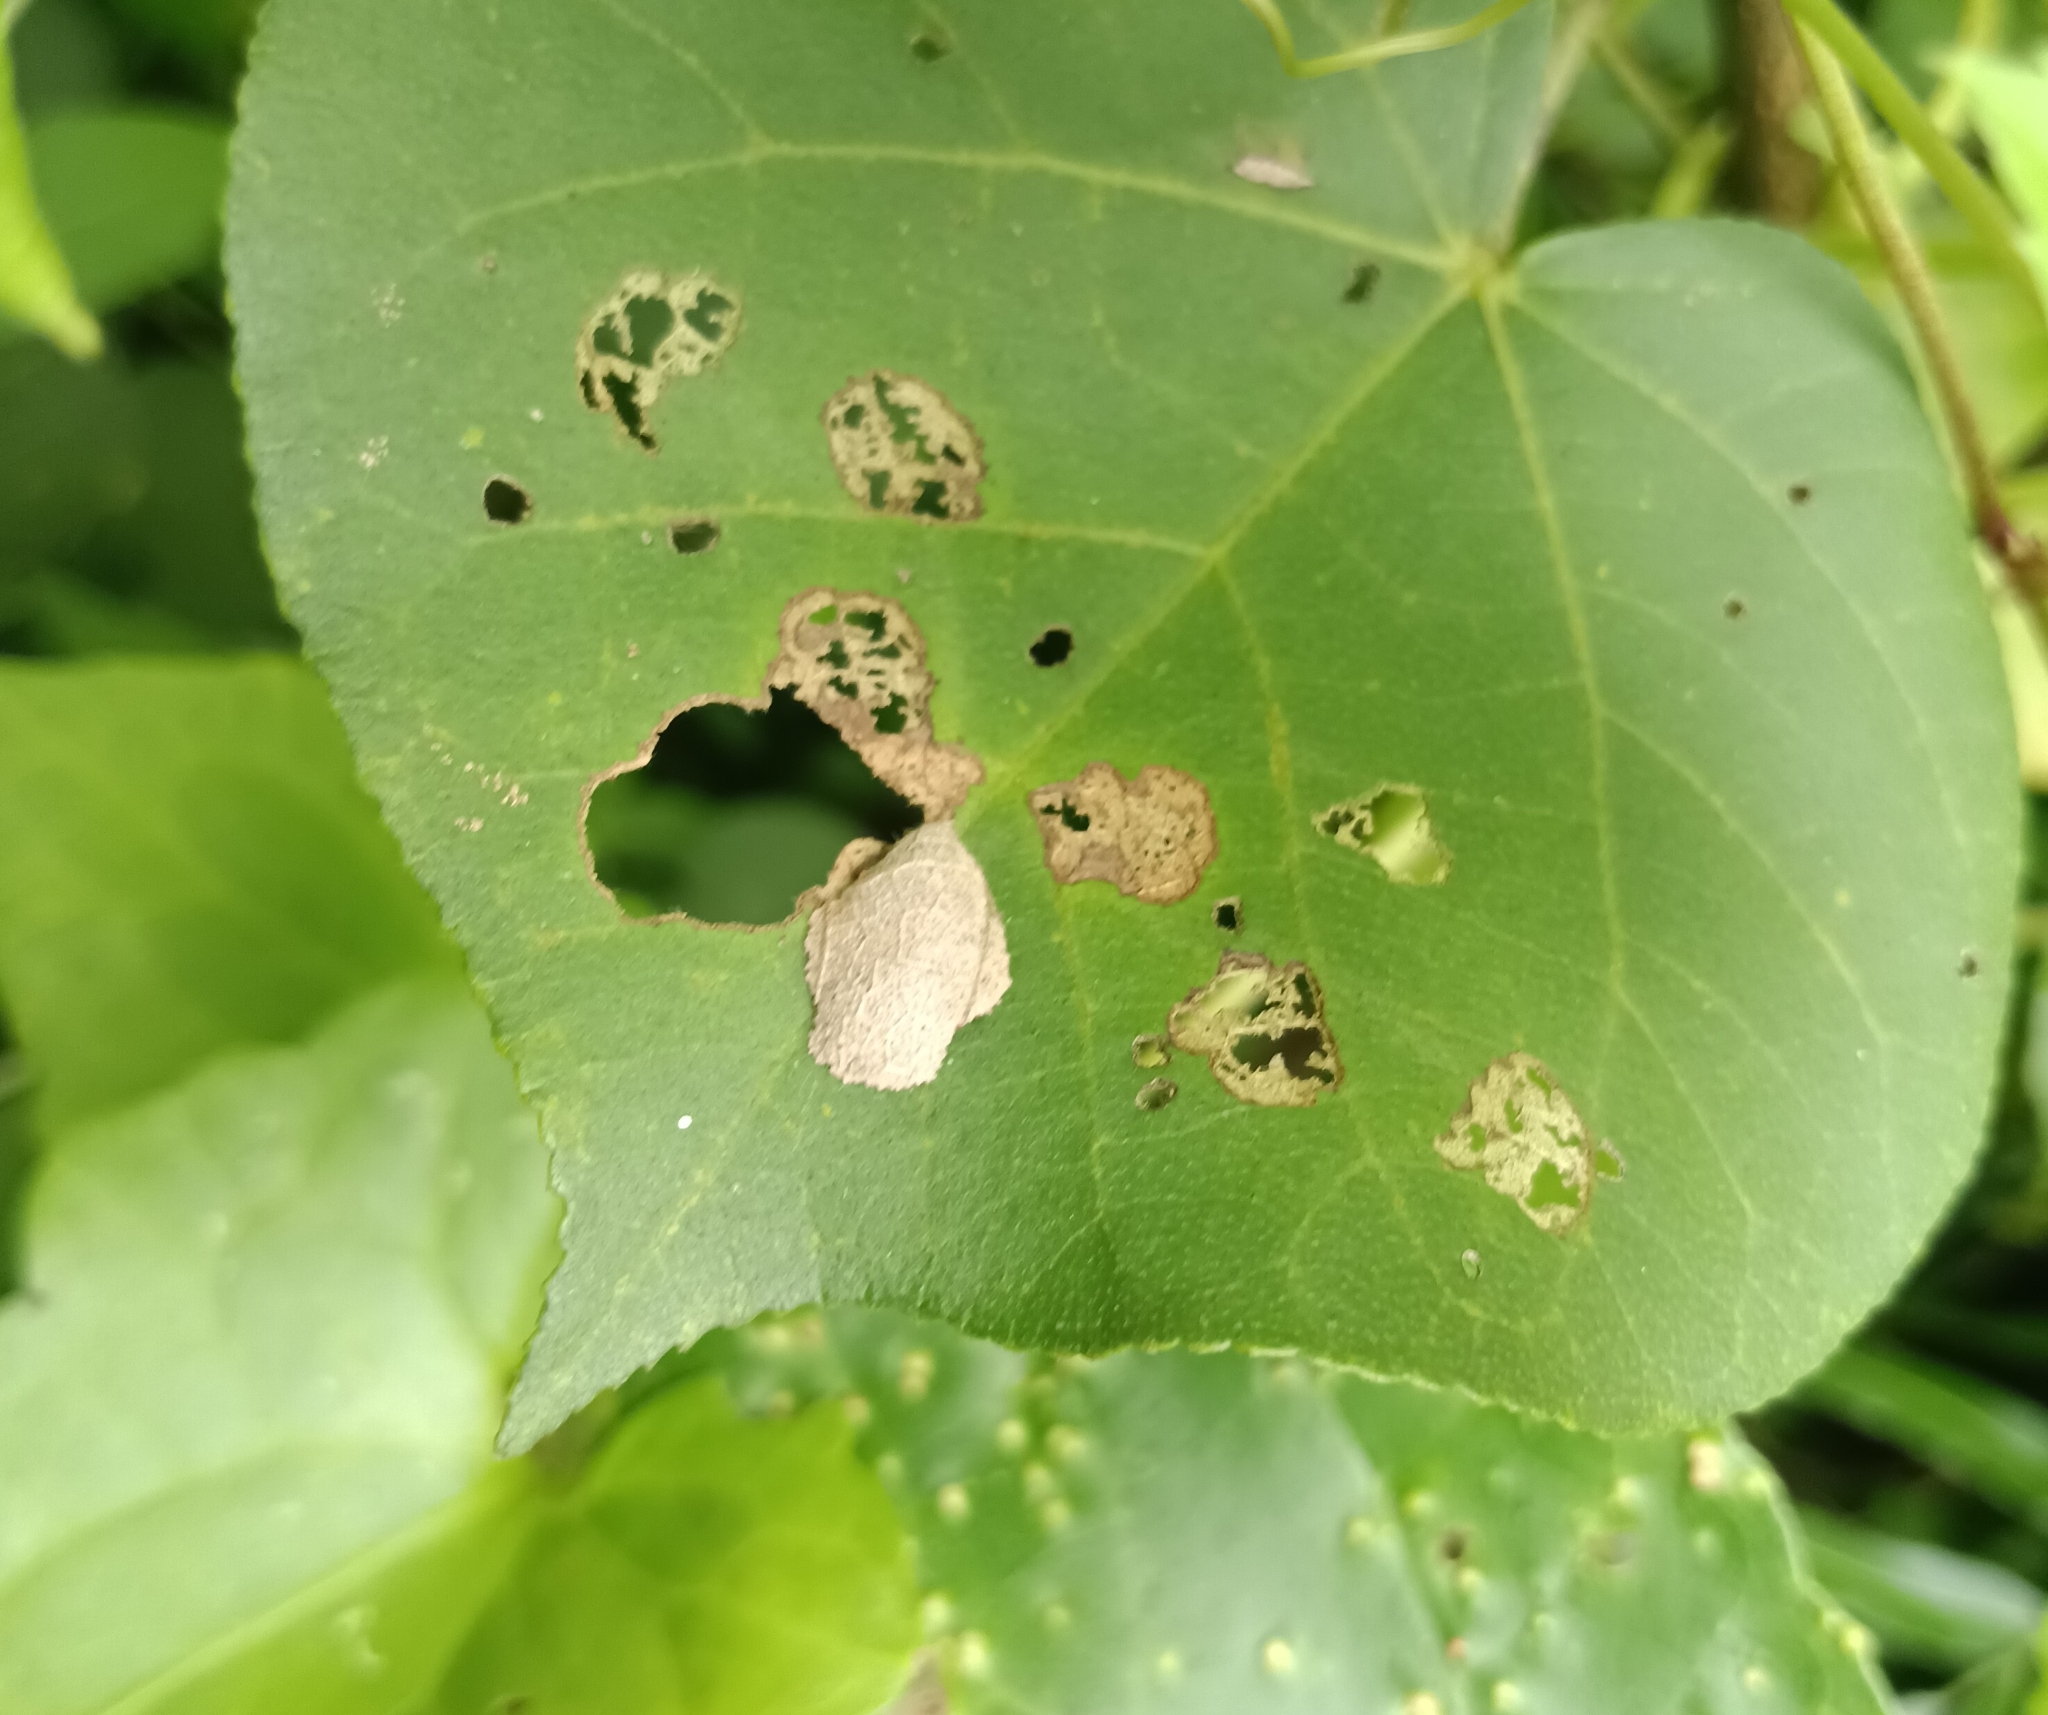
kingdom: Animalia
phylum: Arthropoda
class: Insecta
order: Lepidoptera
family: Hesperiidae
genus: Coladenia
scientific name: Coladenia
